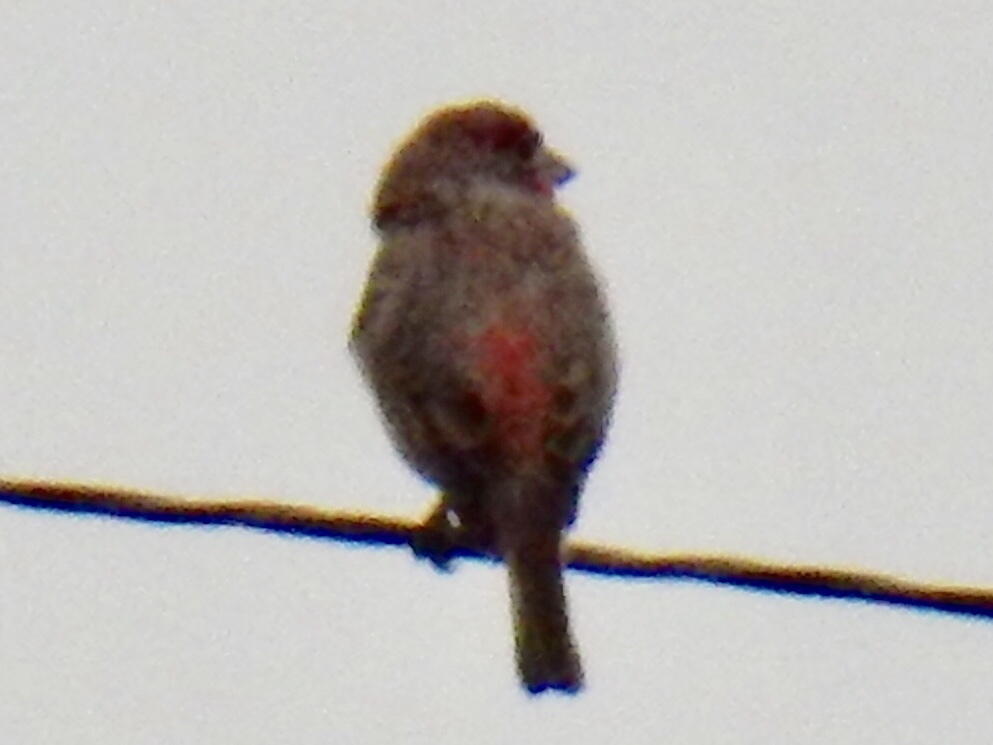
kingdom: Animalia
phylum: Chordata
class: Aves
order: Passeriformes
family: Fringillidae
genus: Haemorhous
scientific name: Haemorhous mexicanus
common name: House finch
